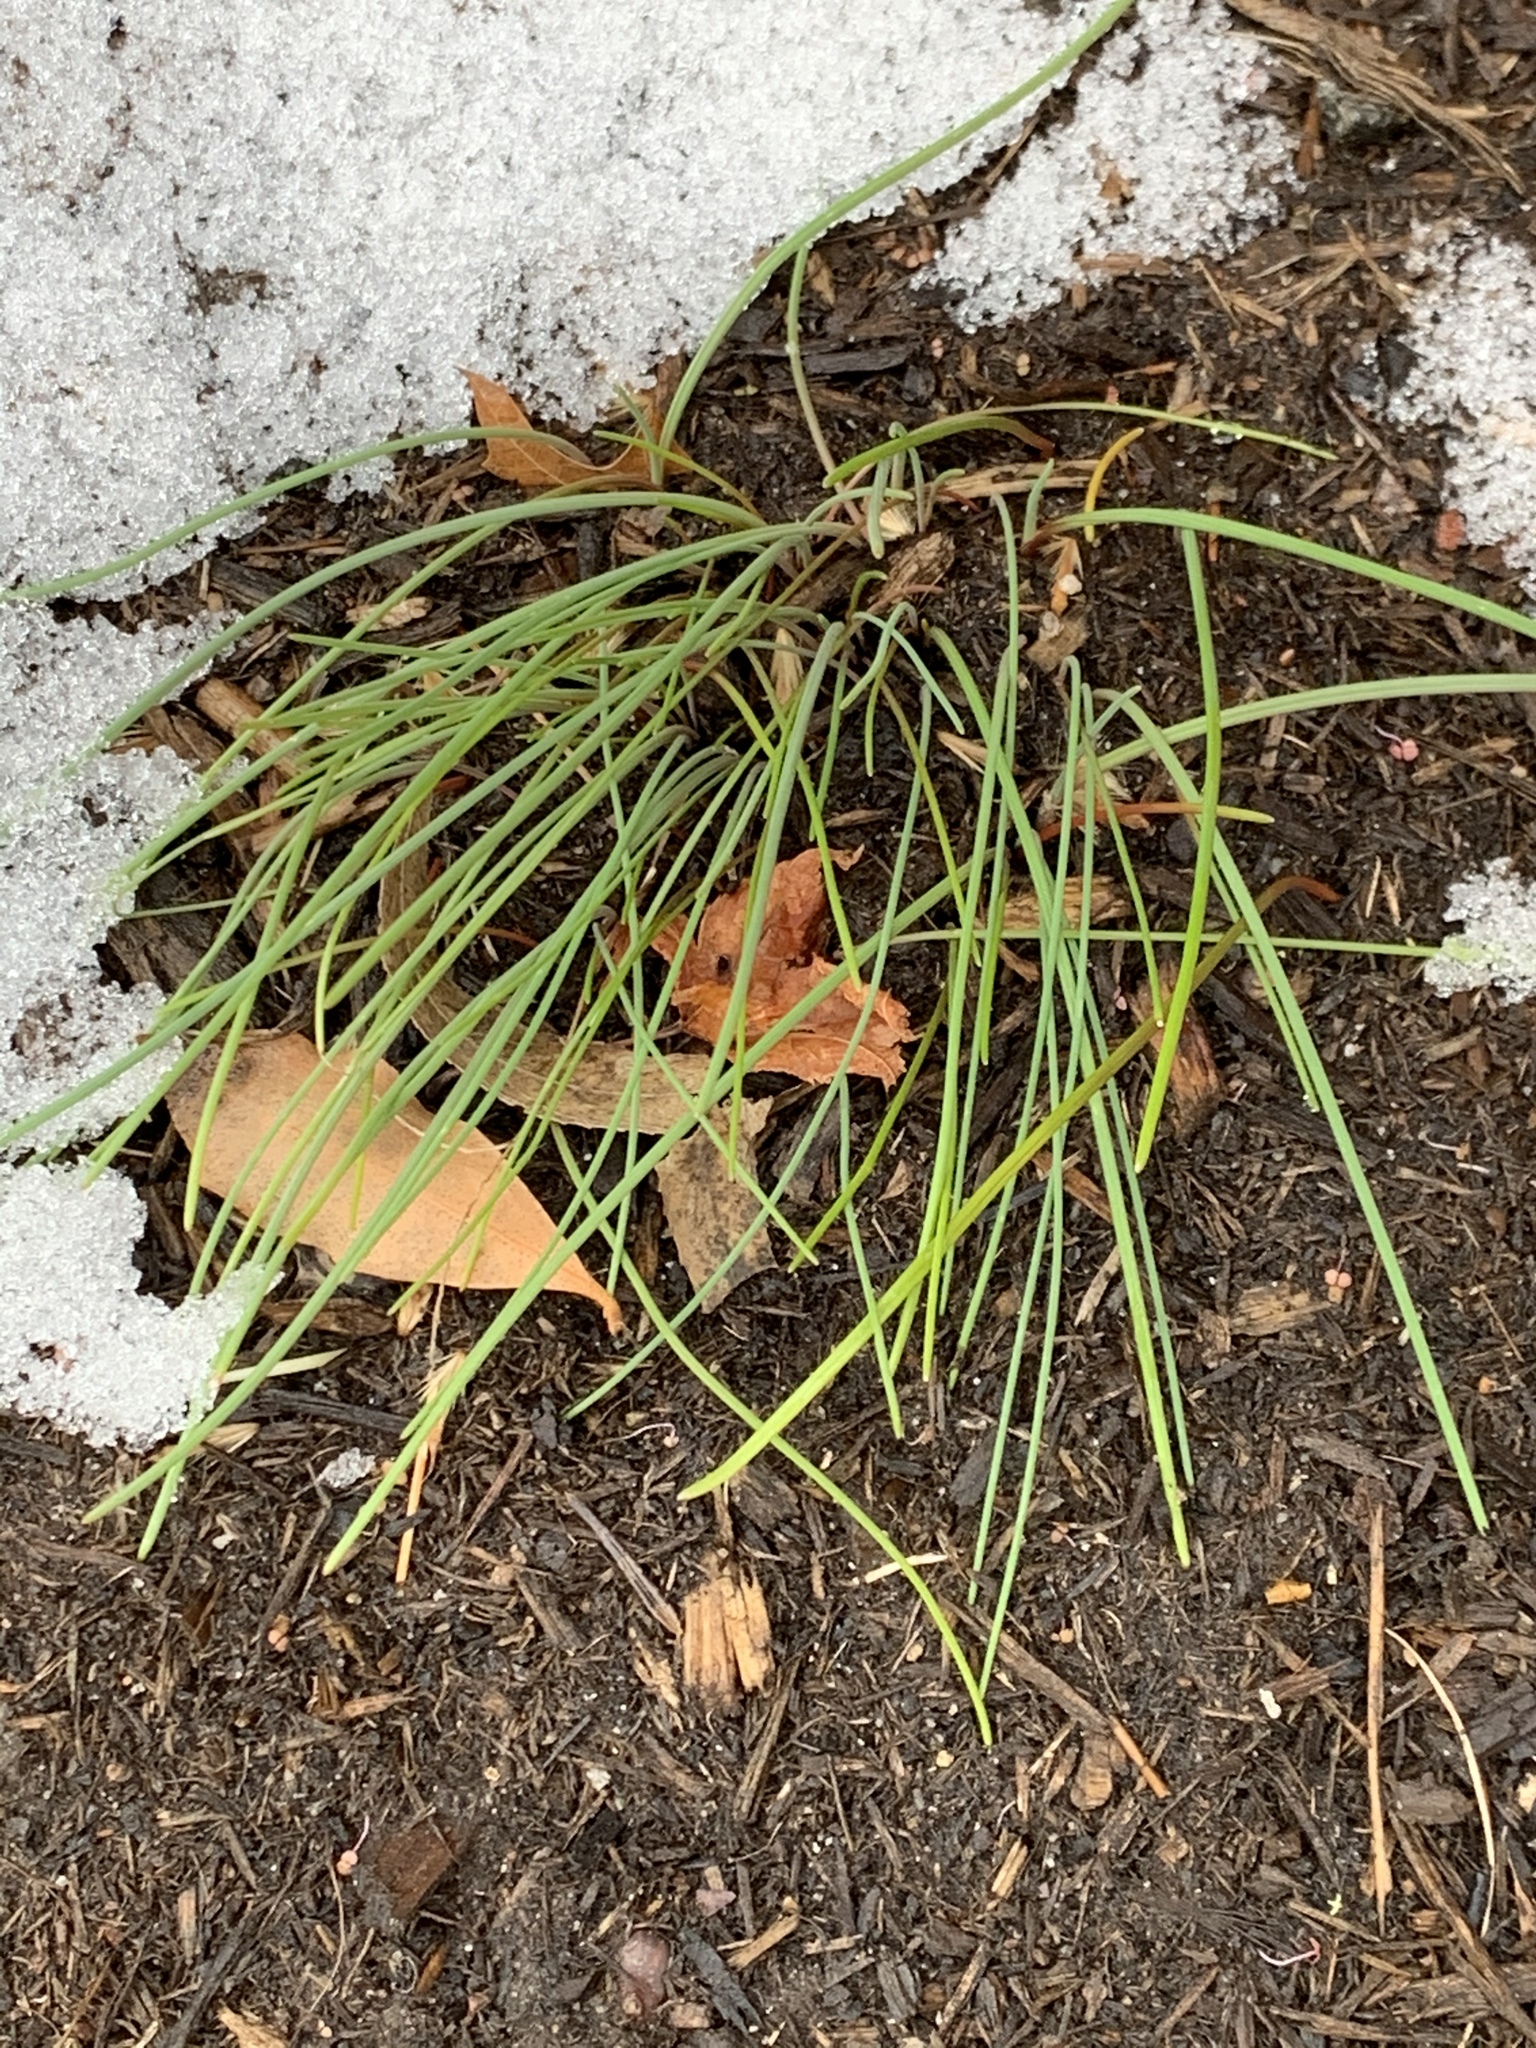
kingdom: Plantae
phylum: Tracheophyta
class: Liliopsida
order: Asparagales
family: Amaryllidaceae
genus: Allium
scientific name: Allium vineale
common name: Crow garlic
